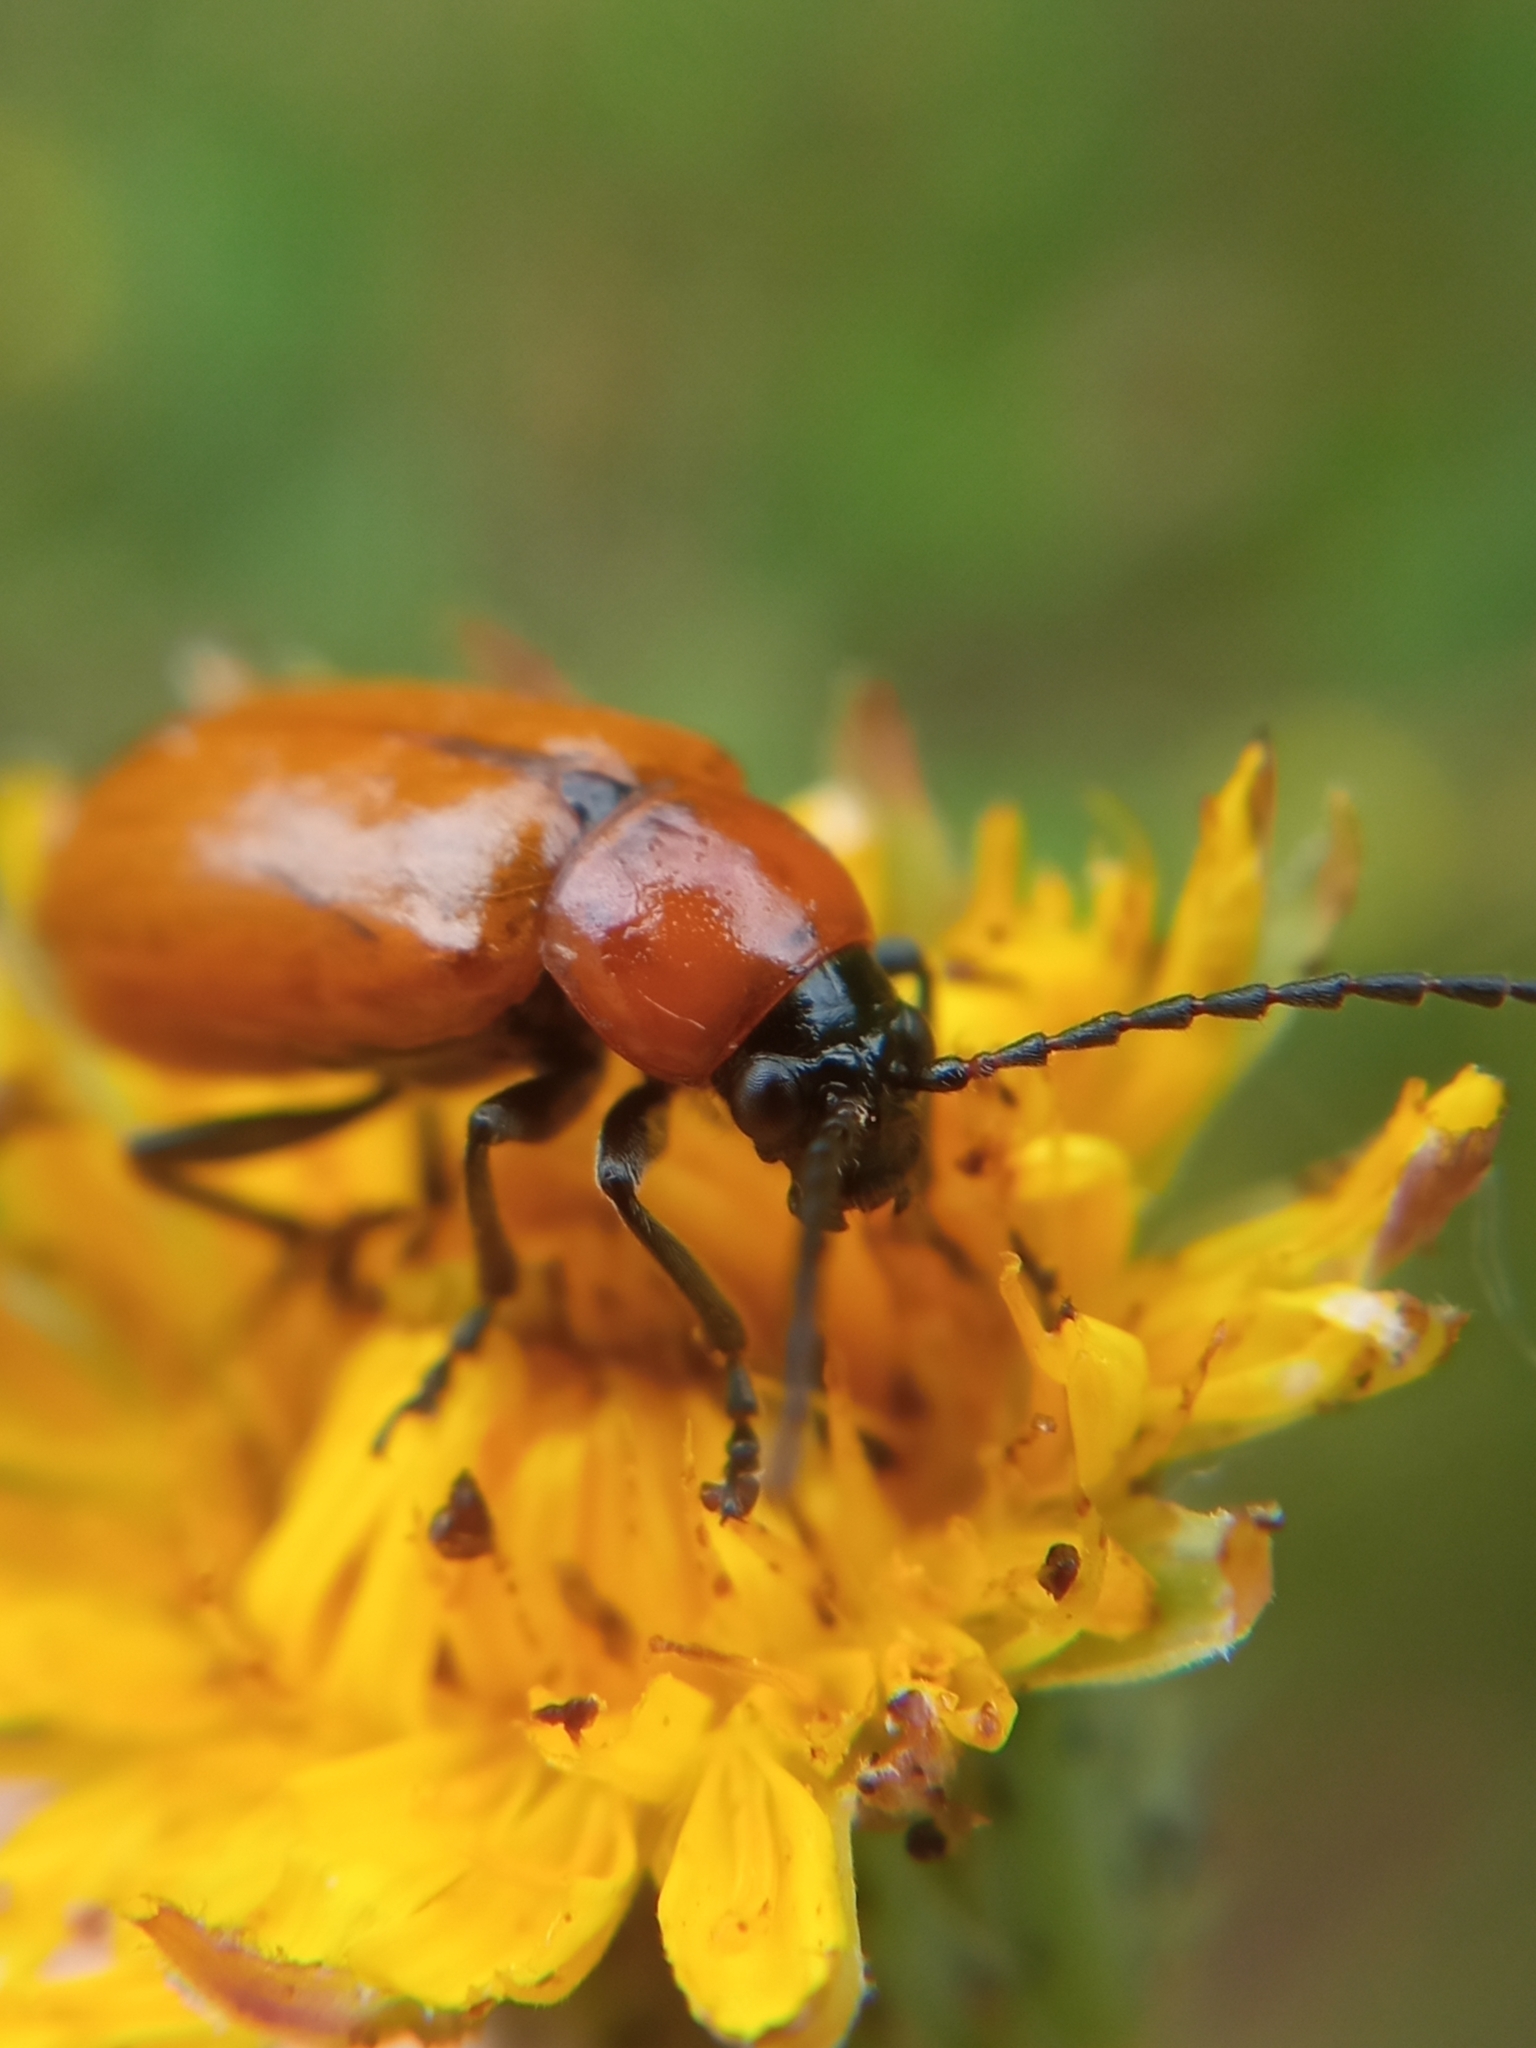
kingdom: Animalia
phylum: Arthropoda
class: Insecta
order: Coleoptera
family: Chrysomelidae
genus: Exosoma
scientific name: Exosoma lusitanicum
